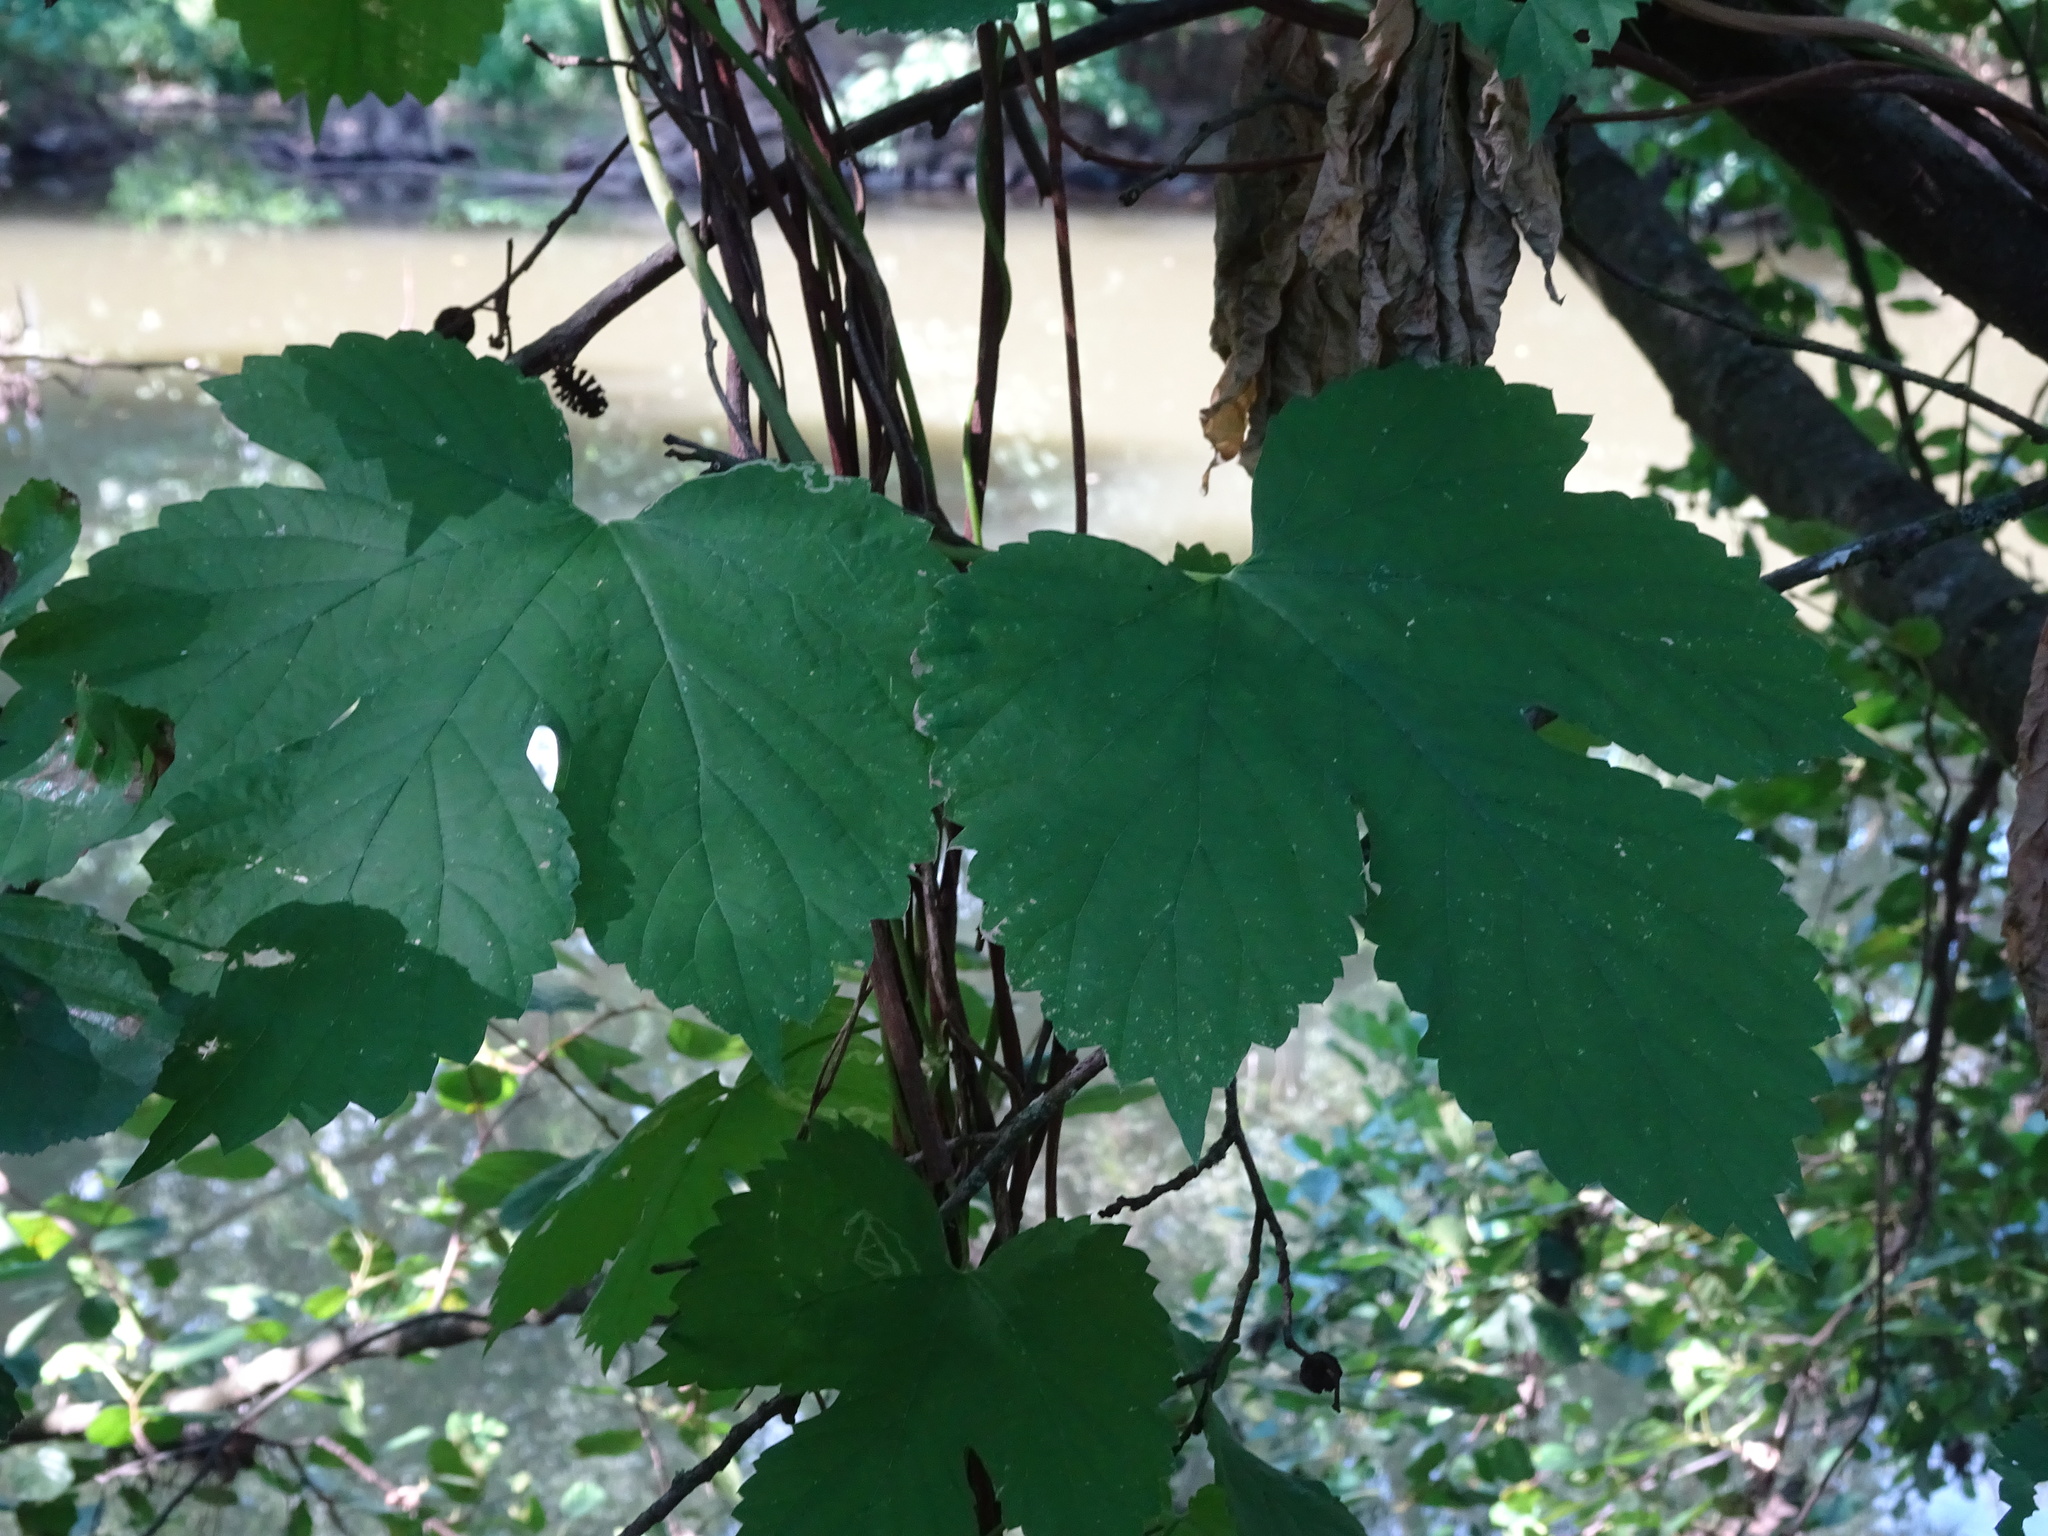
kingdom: Plantae
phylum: Tracheophyta
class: Magnoliopsida
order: Rosales
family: Cannabaceae
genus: Humulus
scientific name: Humulus lupulus
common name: Hop
